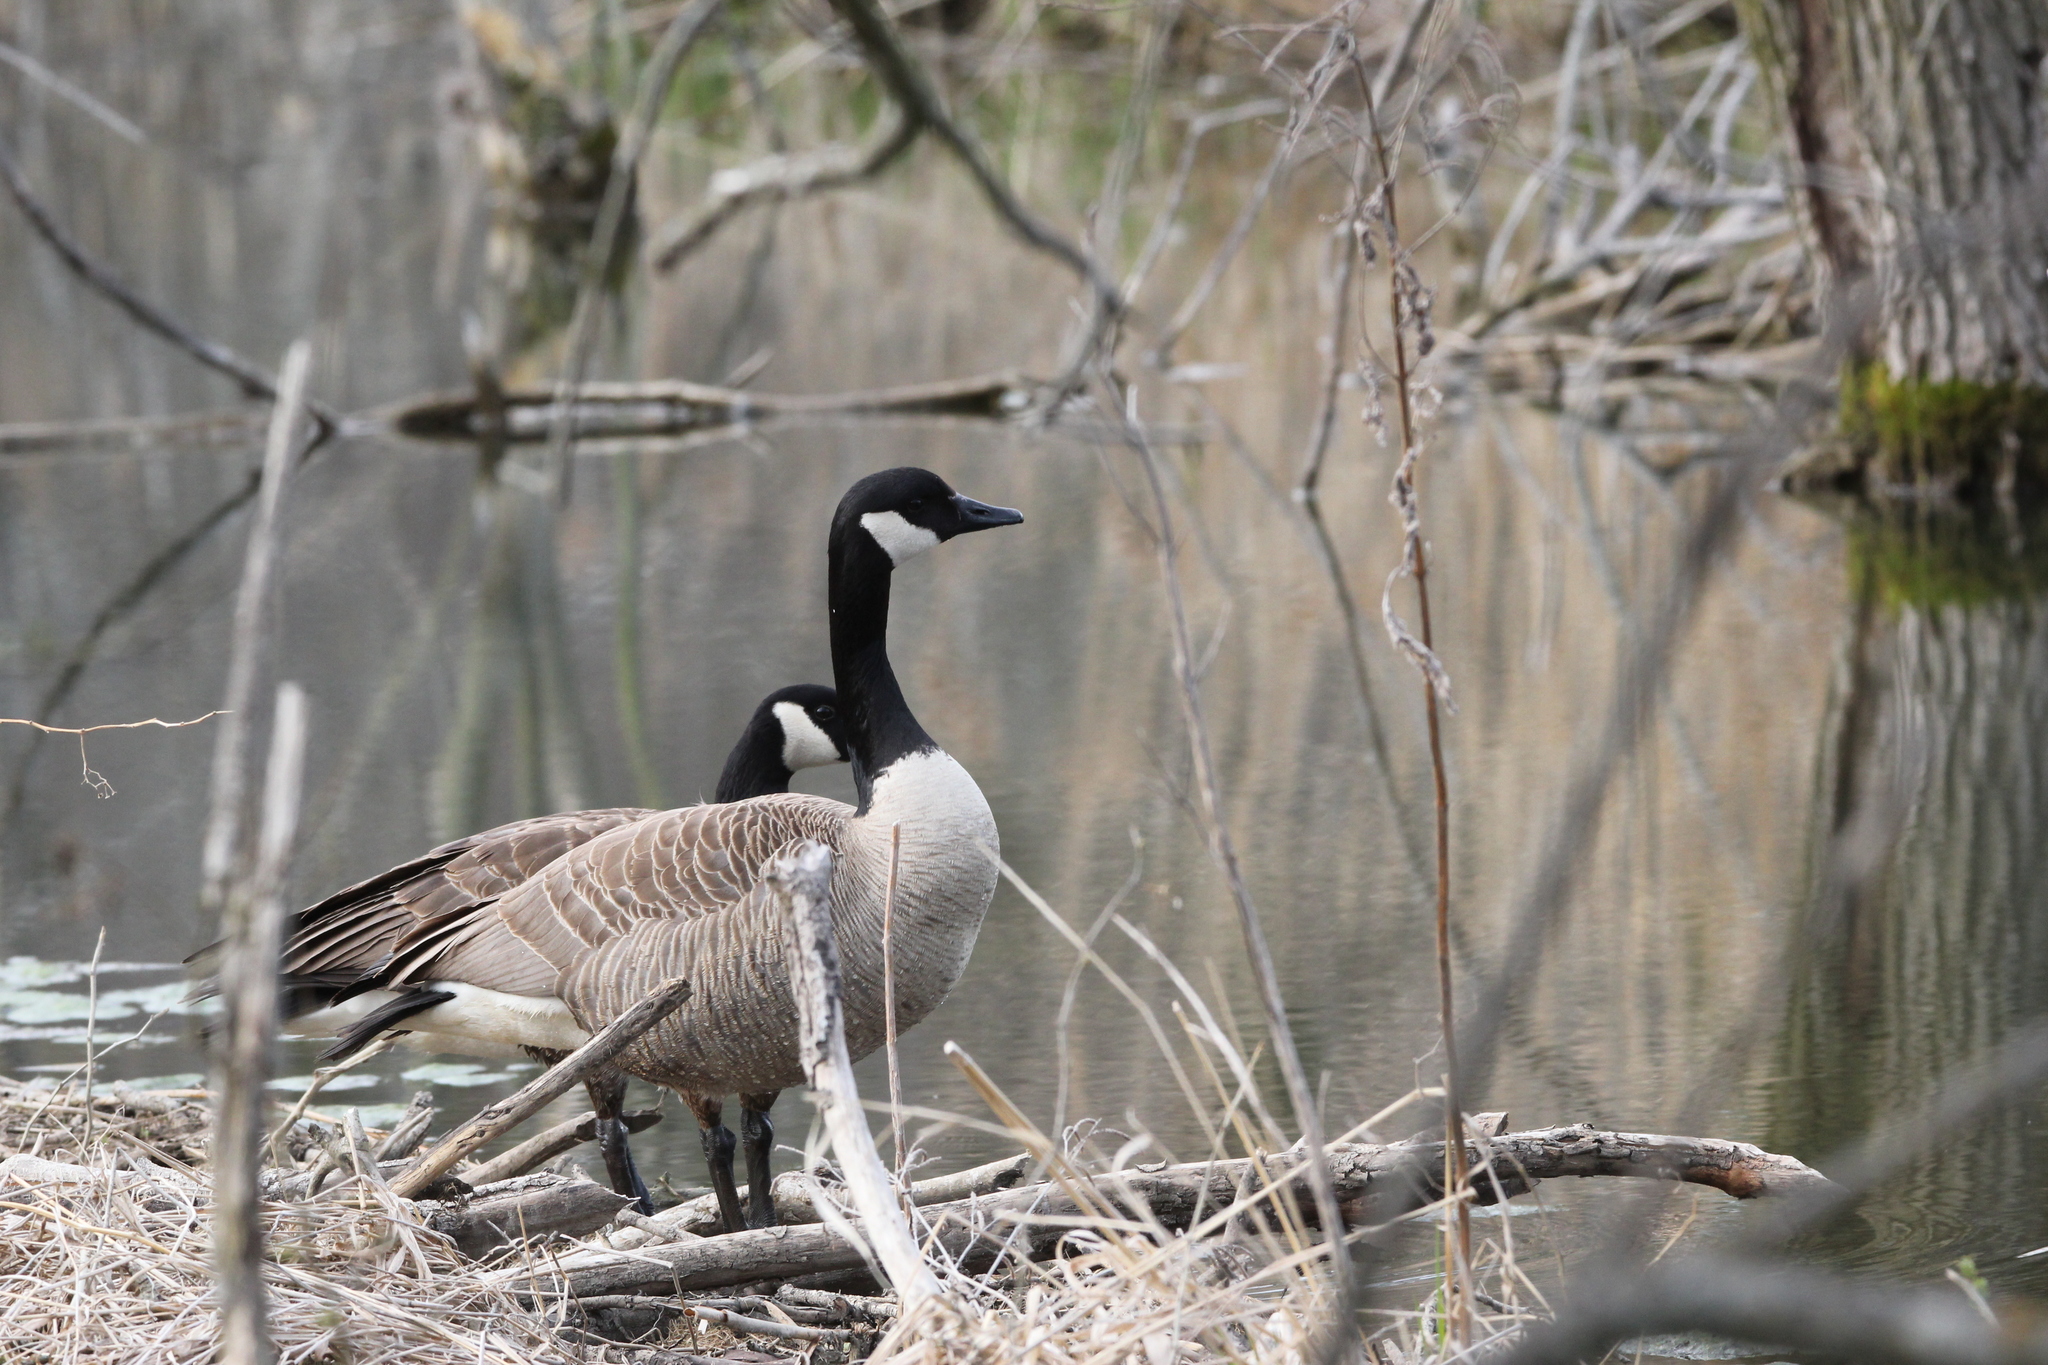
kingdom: Animalia
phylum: Chordata
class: Aves
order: Anseriformes
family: Anatidae
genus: Branta
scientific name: Branta canadensis
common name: Canada goose
